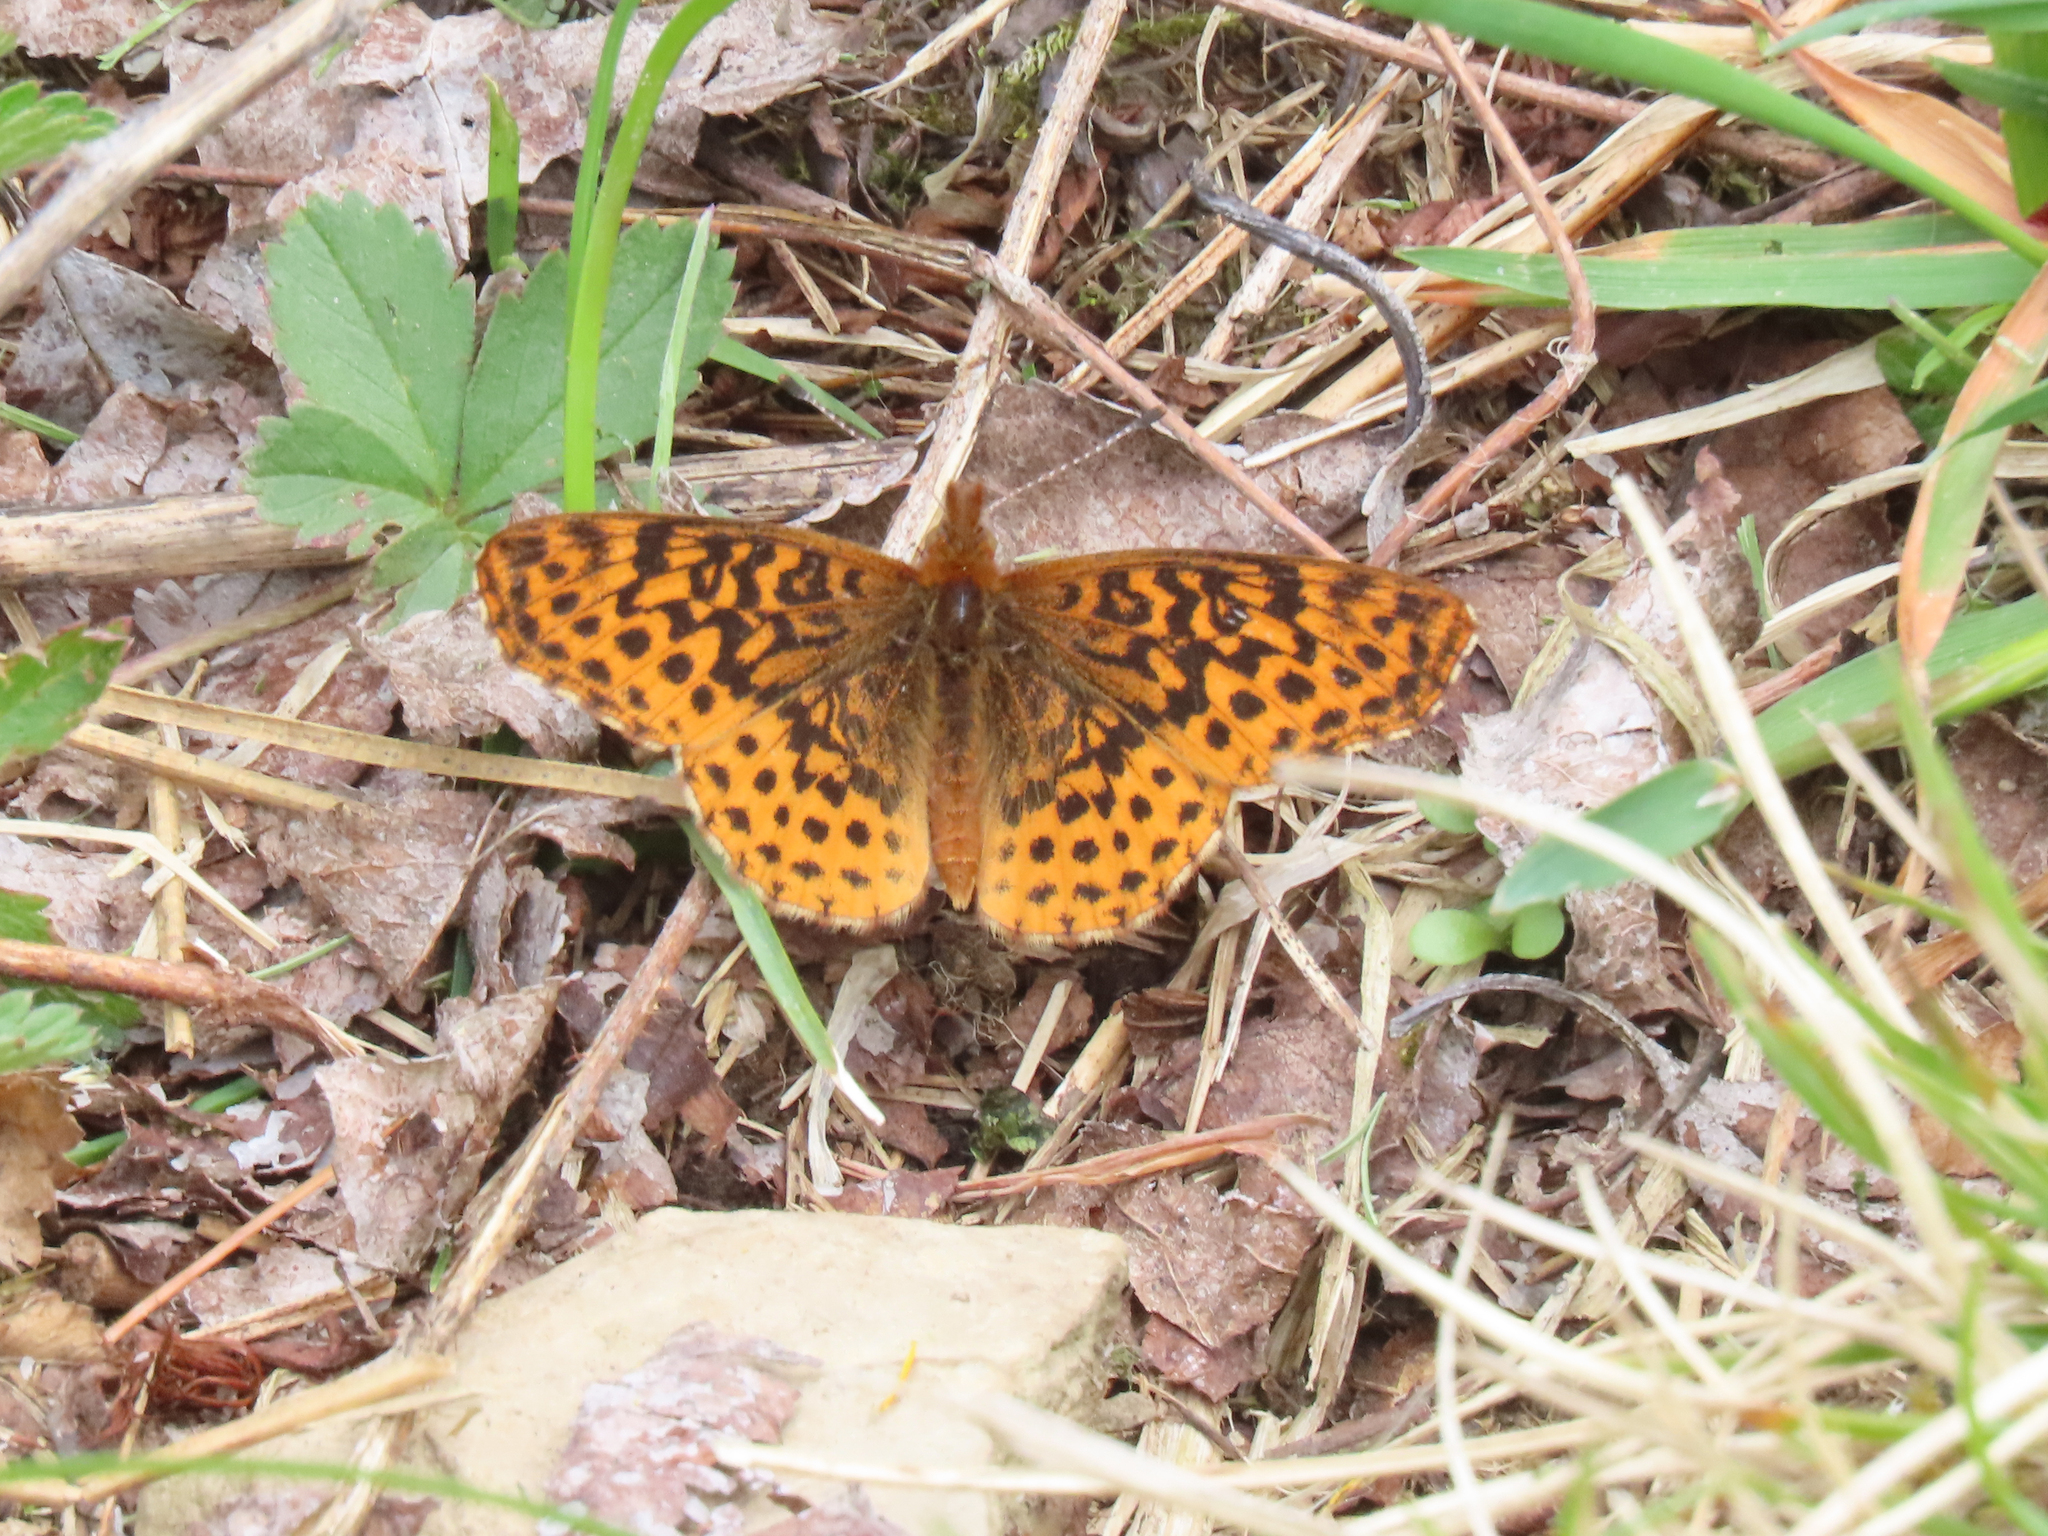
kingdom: Animalia
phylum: Arthropoda
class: Insecta
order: Lepidoptera
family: Nymphalidae
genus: Clossiana
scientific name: Clossiana toddi
